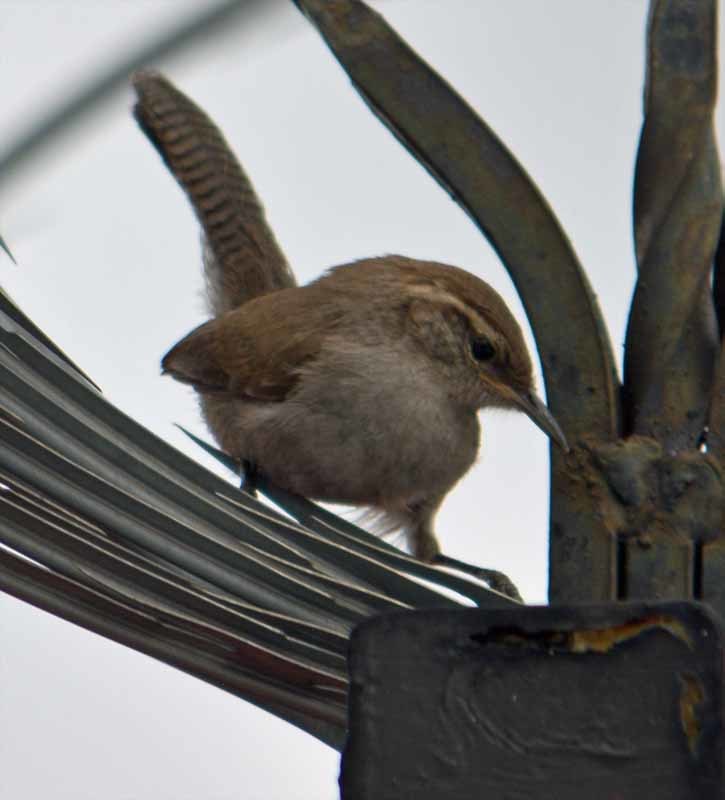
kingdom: Animalia
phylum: Chordata
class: Aves
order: Passeriformes
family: Troglodytidae
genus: Thryomanes
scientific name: Thryomanes bewickii
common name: Bewick's wren
